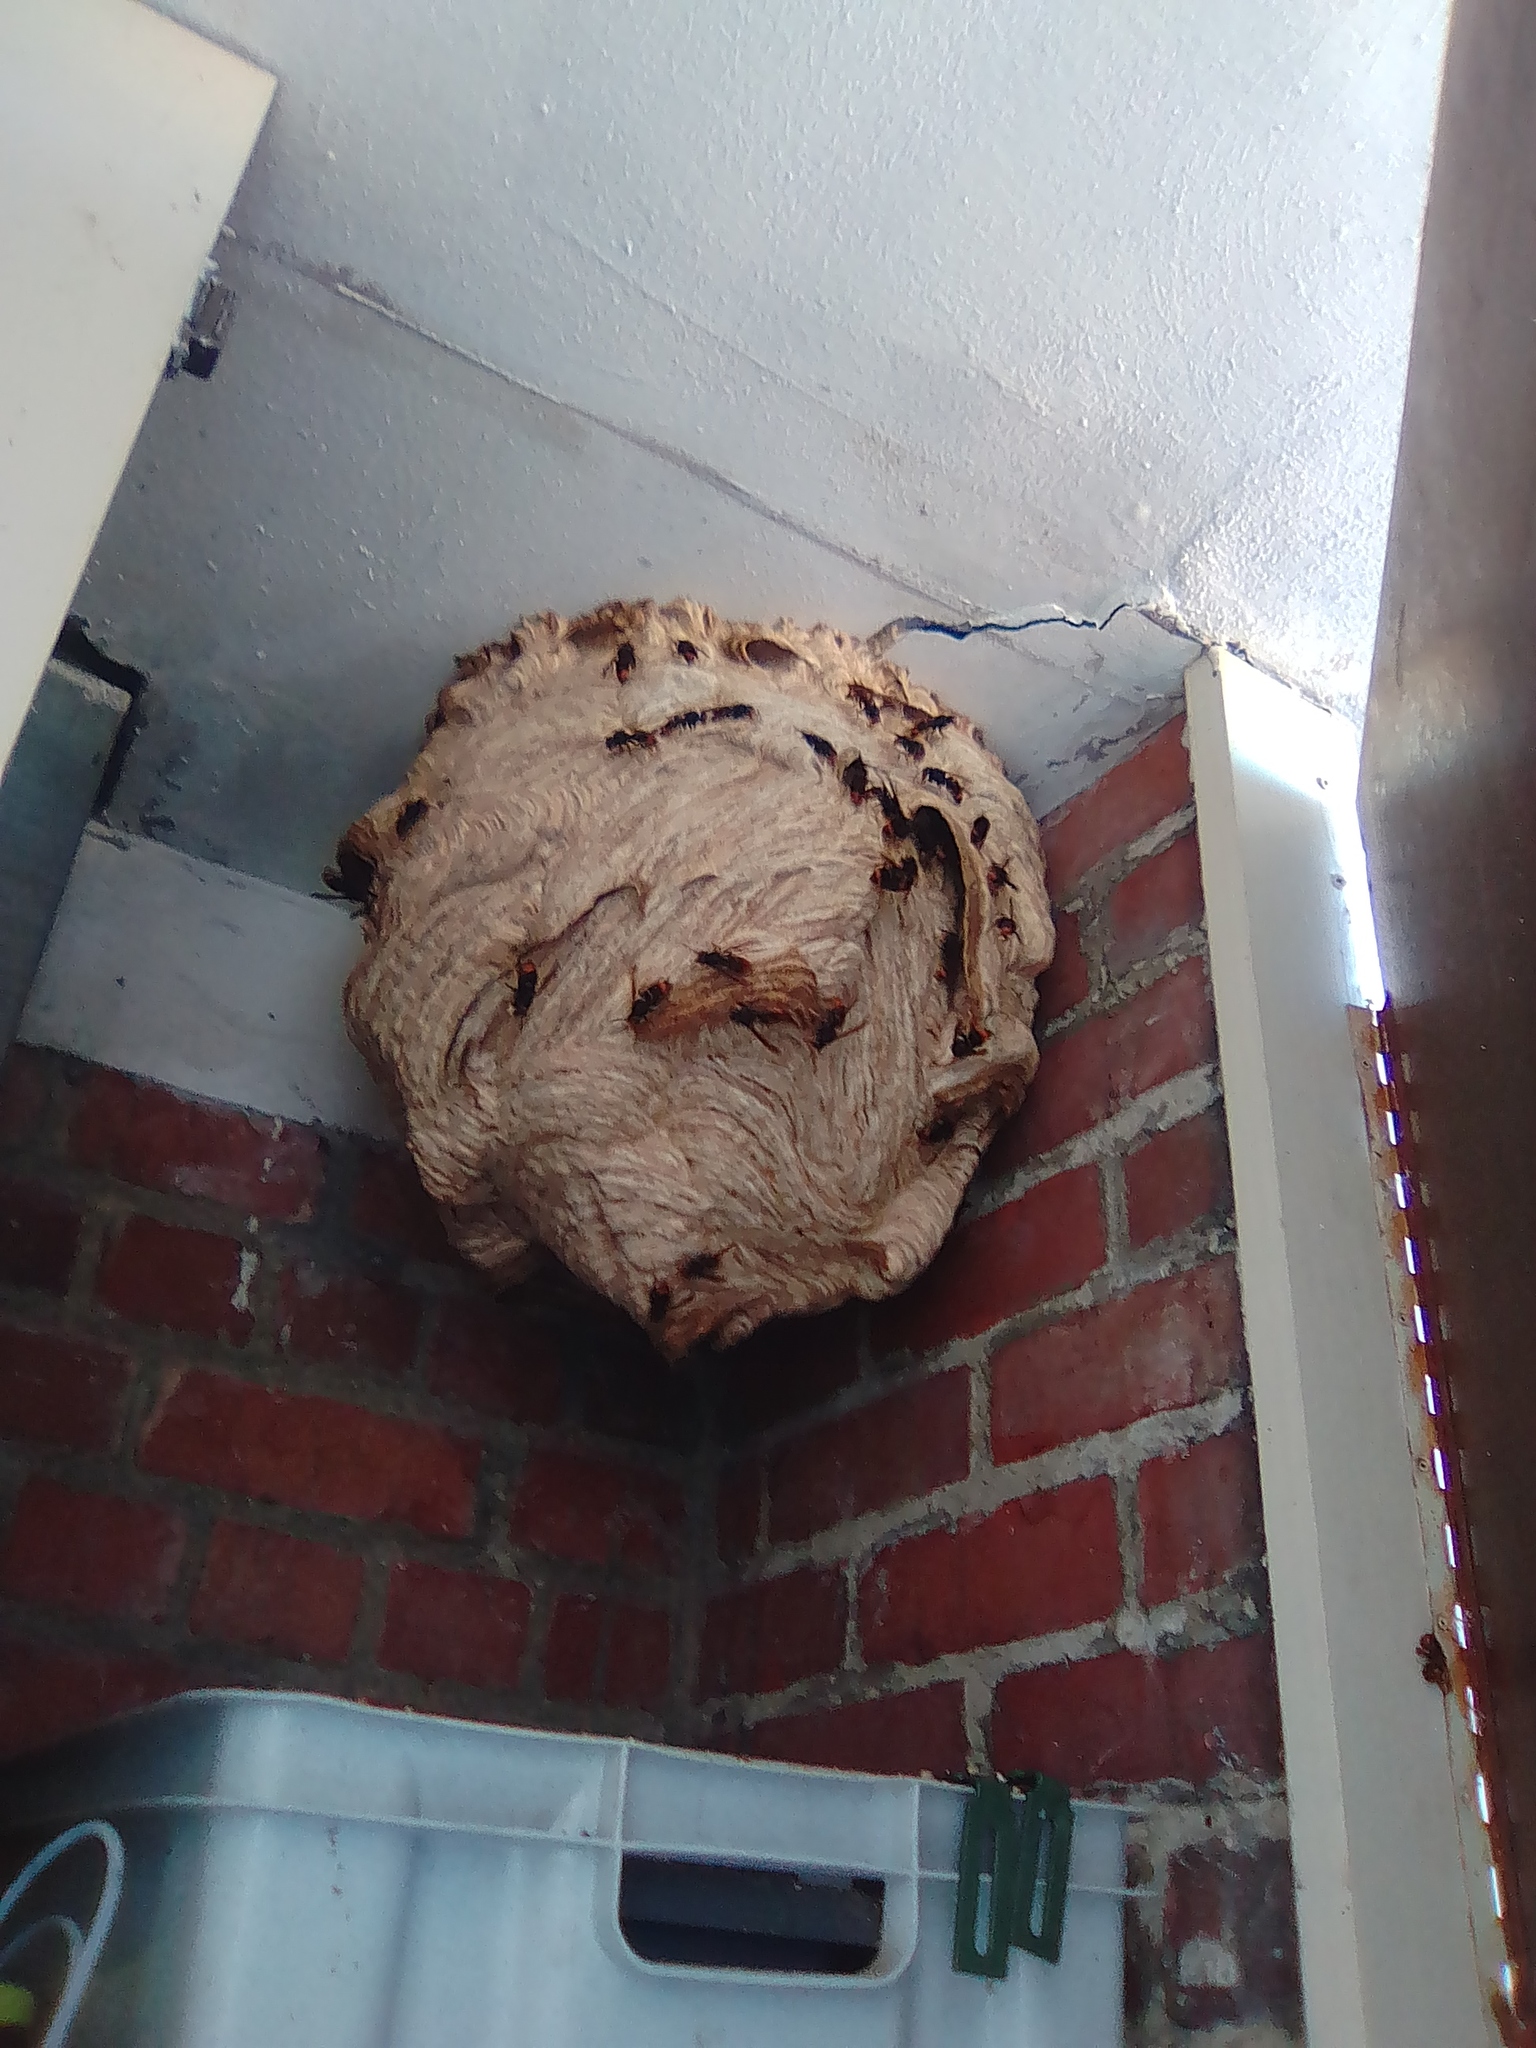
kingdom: Animalia
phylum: Arthropoda
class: Insecta
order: Hymenoptera
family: Vespidae
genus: Vespa
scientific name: Vespa velutina
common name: Asian hornet
